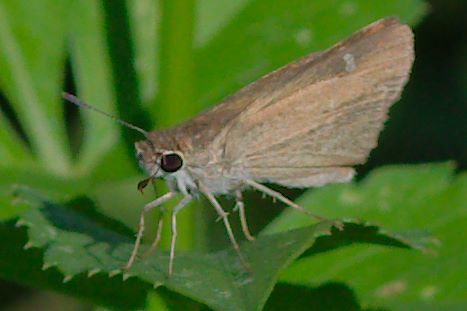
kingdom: Animalia
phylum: Arthropoda
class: Insecta
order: Lepidoptera
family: Hesperiidae
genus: Lerodea
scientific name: Lerodea eufala
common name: Eufala skipper
